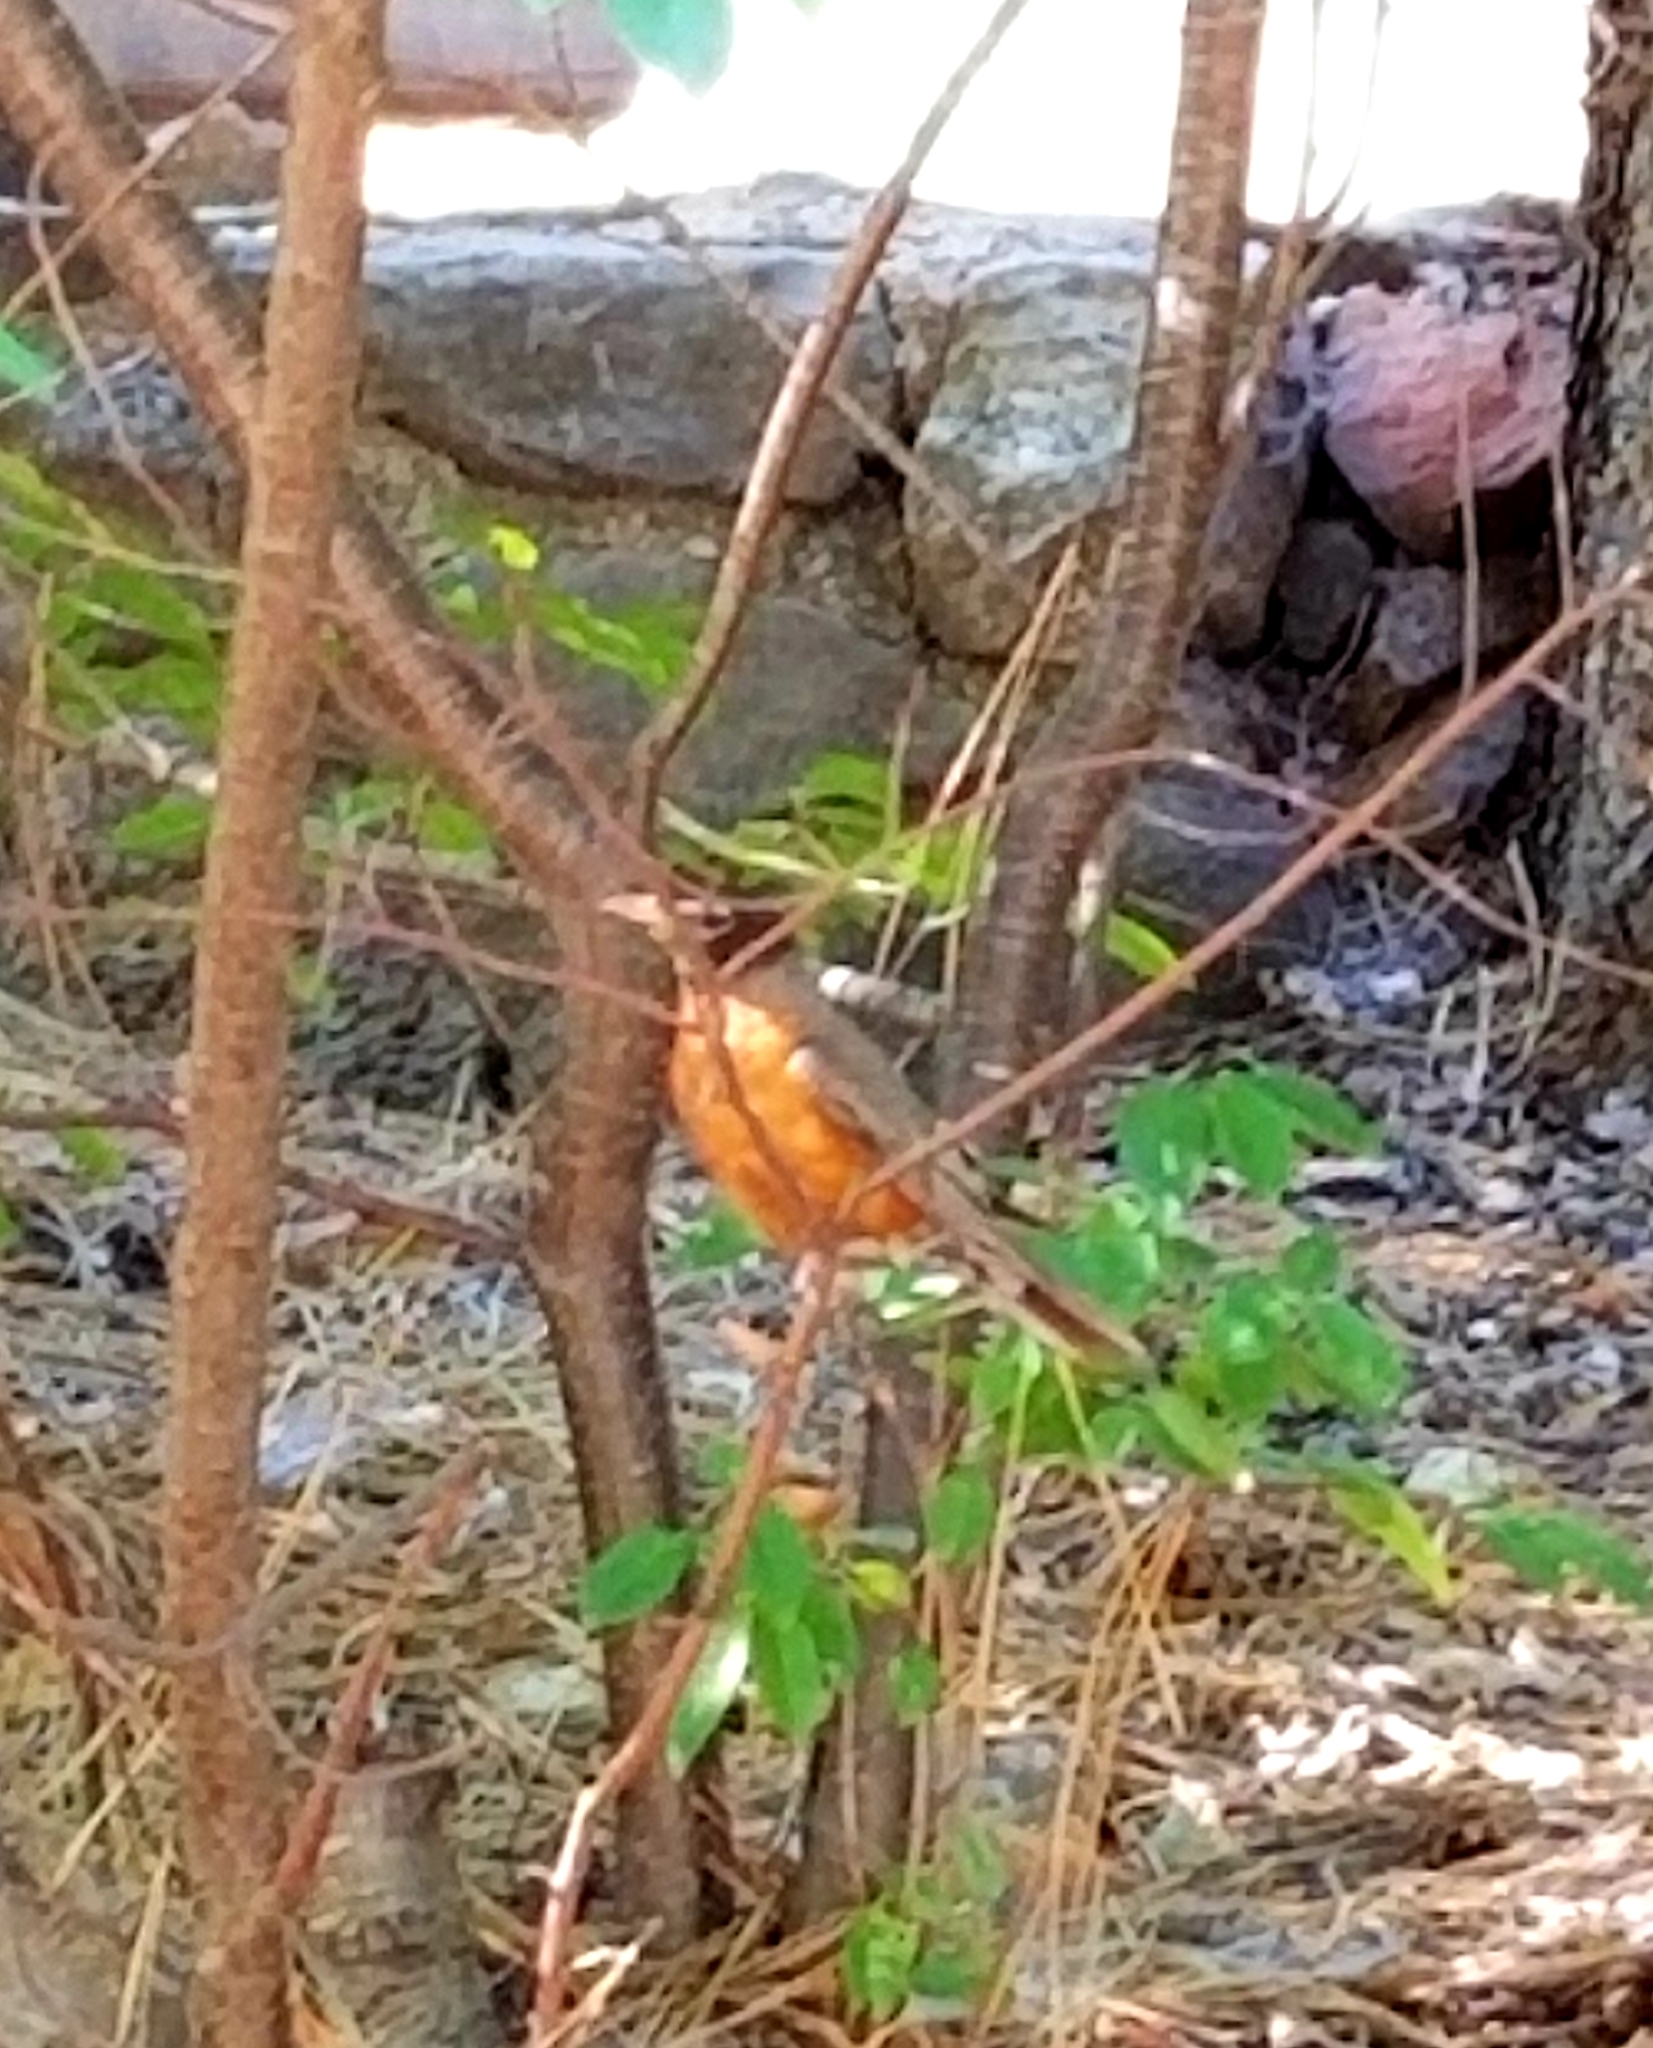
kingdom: Animalia
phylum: Chordata
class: Aves
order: Passeriformes
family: Turdidae
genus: Turdus
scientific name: Turdus migratorius
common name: American robin
